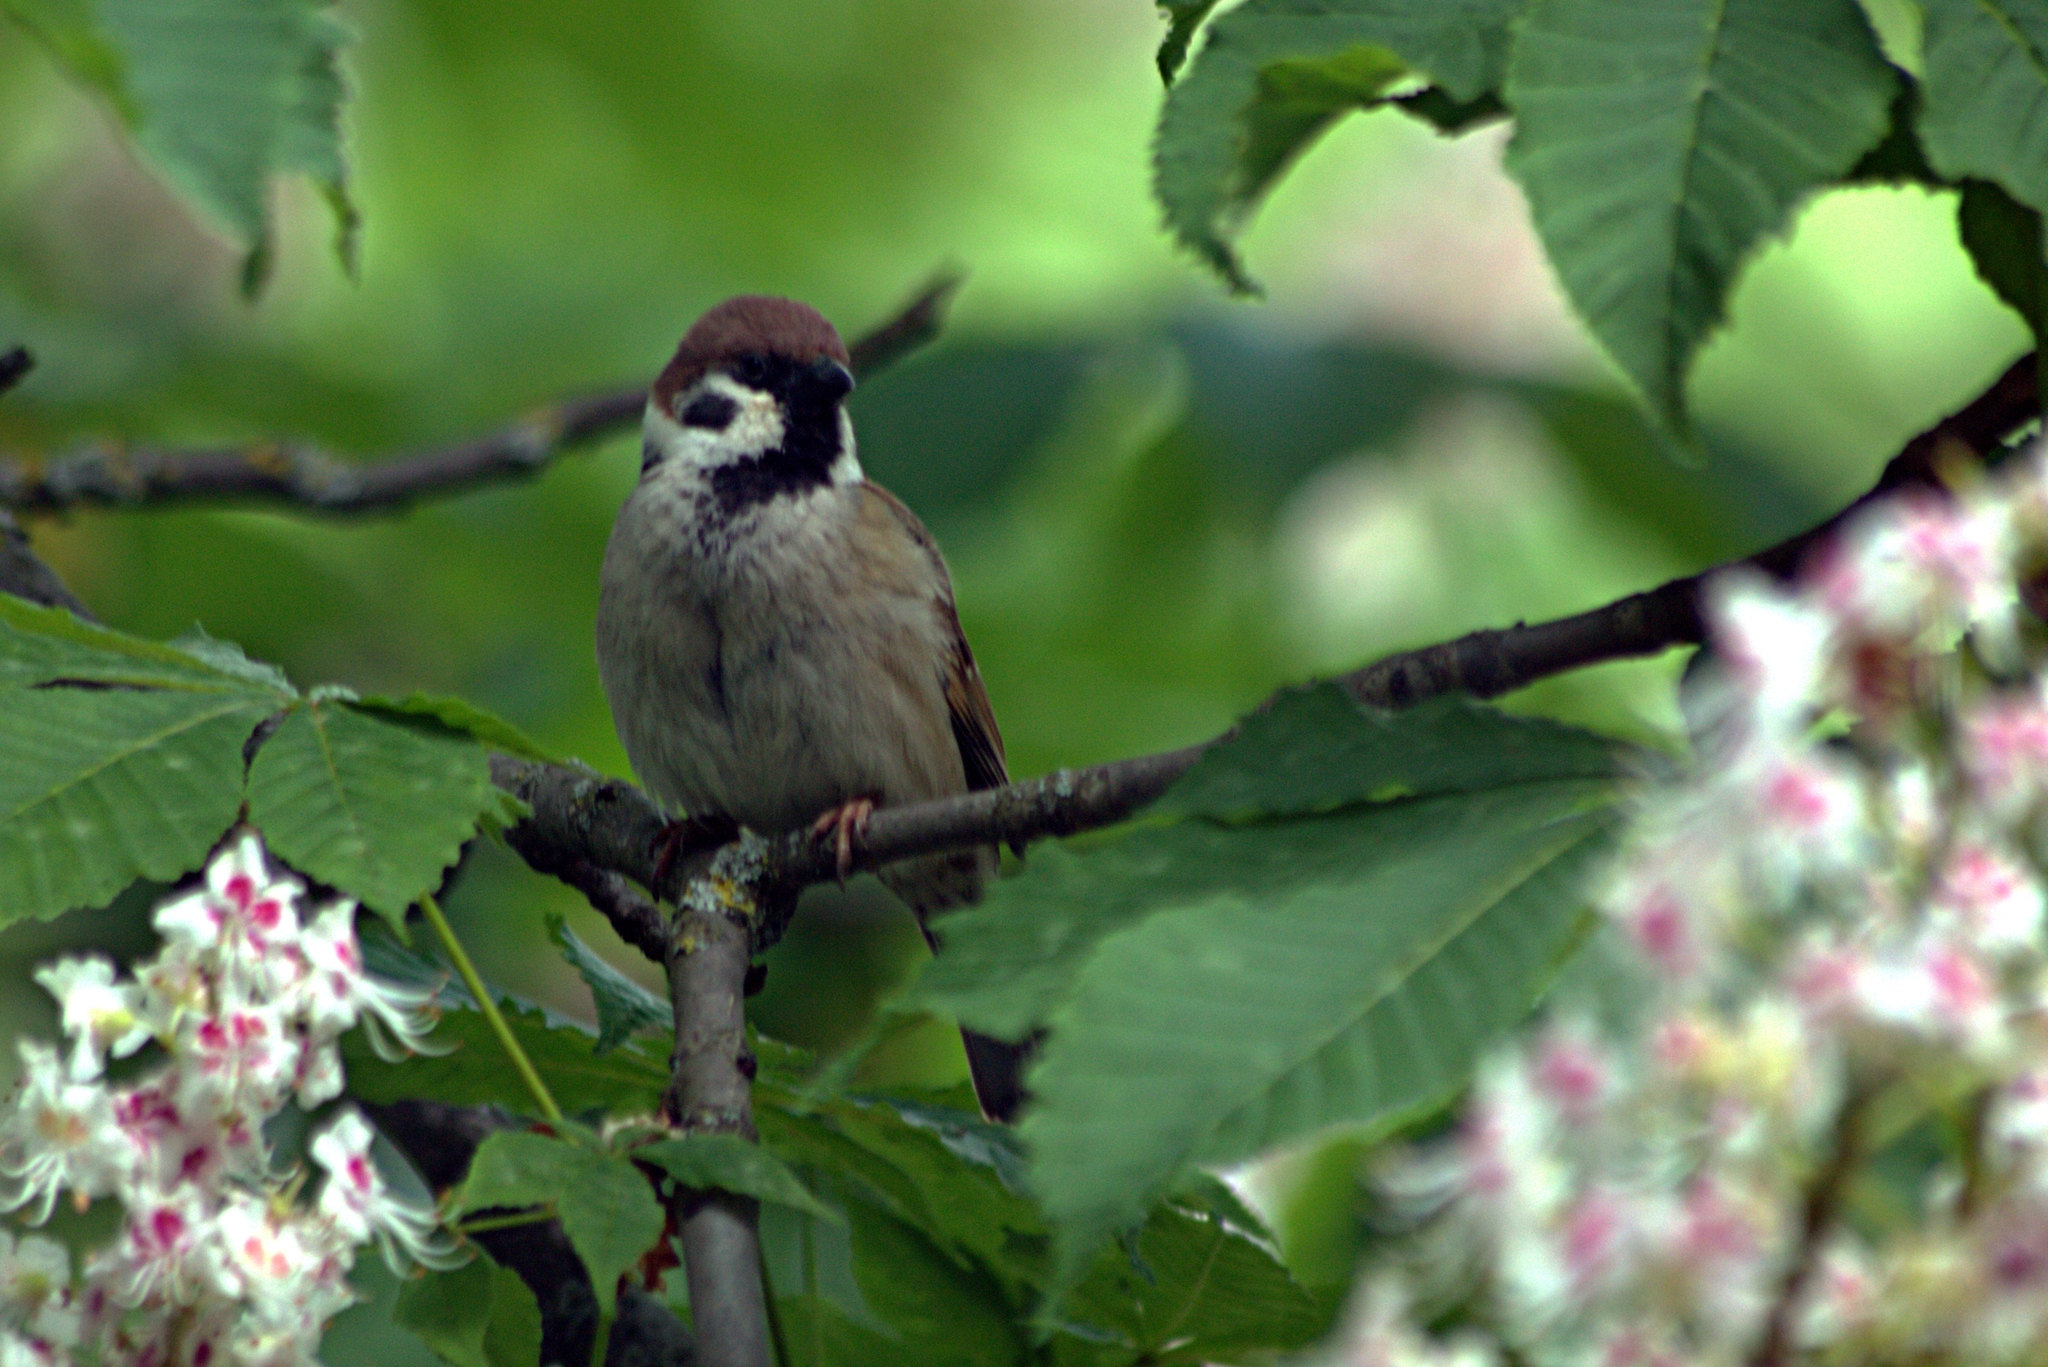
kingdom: Animalia
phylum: Chordata
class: Aves
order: Passeriformes
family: Passeridae
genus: Passer
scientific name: Passer montanus
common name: Eurasian tree sparrow
